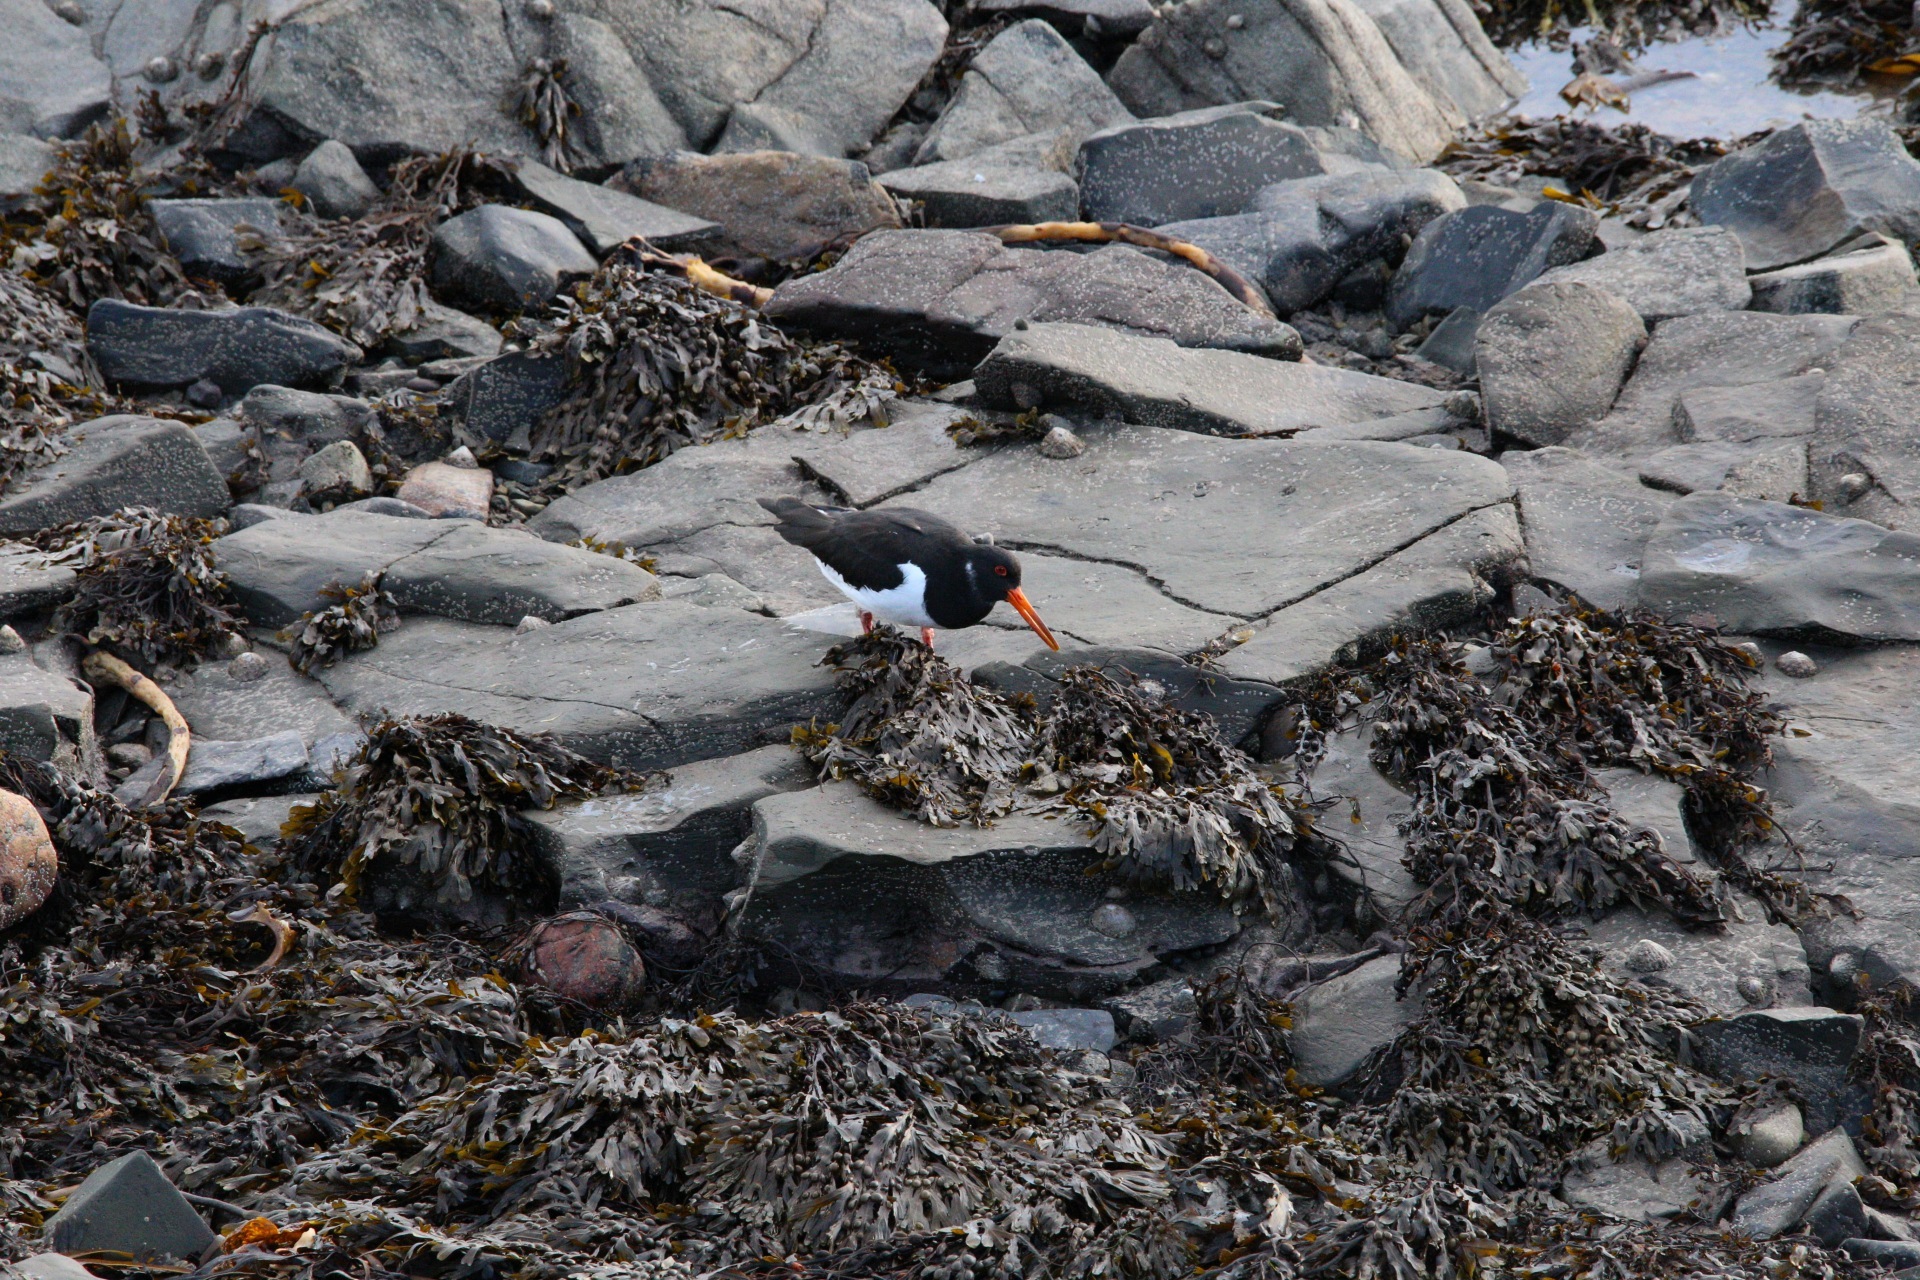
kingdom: Animalia
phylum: Chordata
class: Aves
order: Charadriiformes
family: Haematopodidae
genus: Haematopus
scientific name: Haematopus ostralegus
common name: Eurasian oystercatcher
